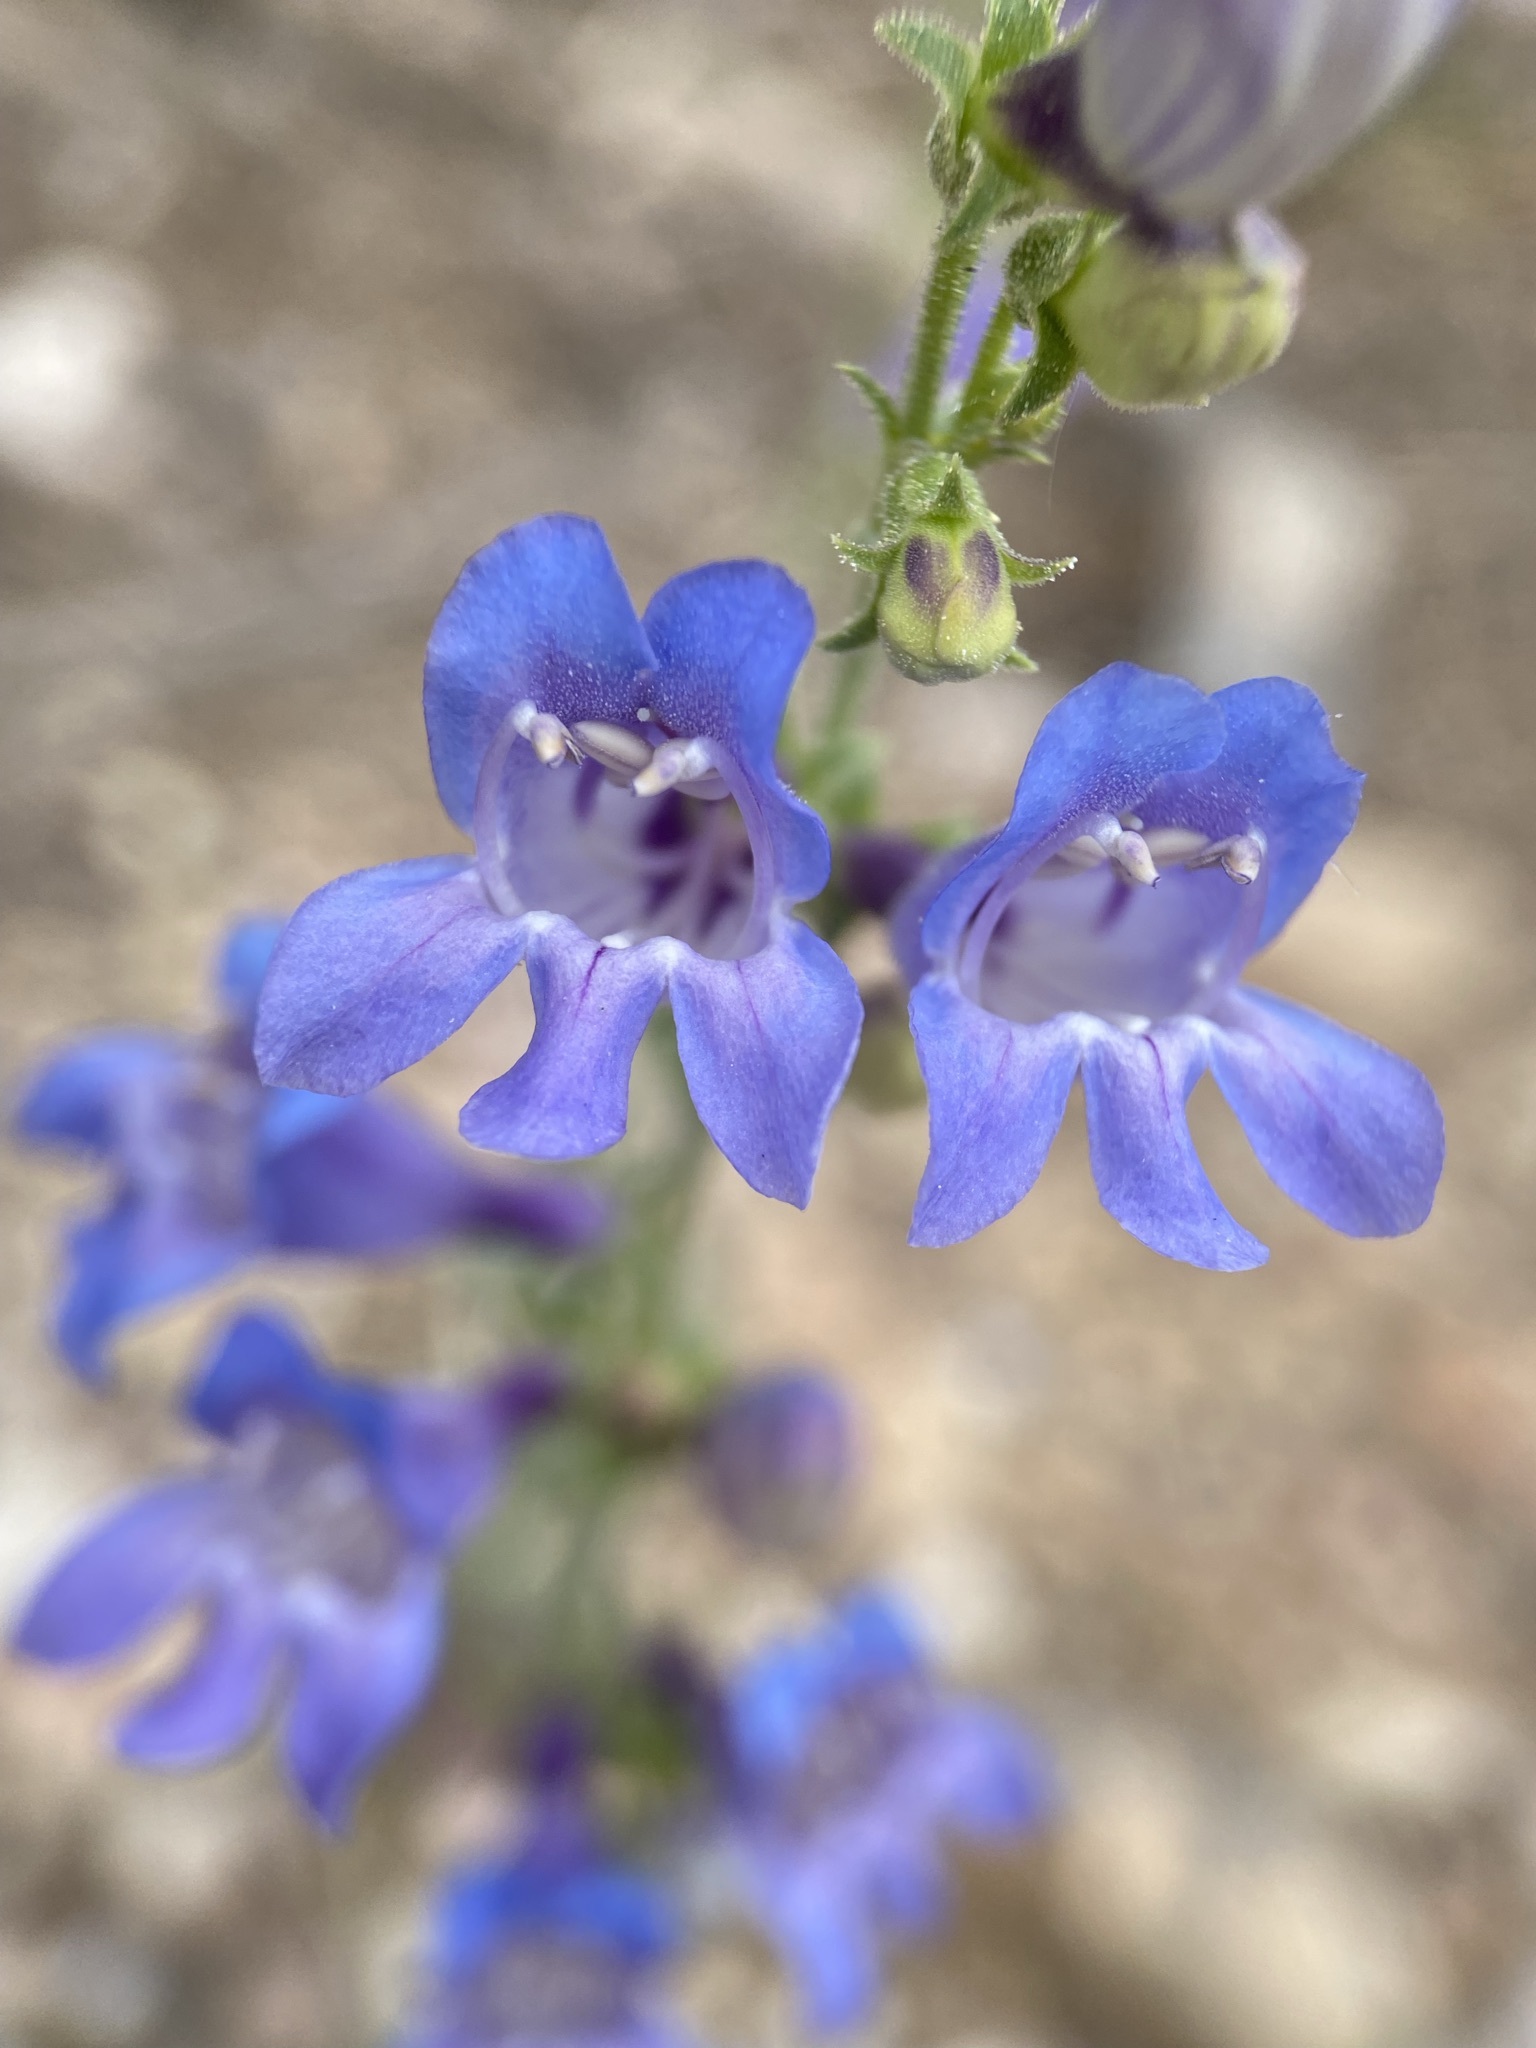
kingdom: Plantae
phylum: Tracheophyta
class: Magnoliopsida
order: Lamiales
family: Plantaginaceae
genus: Penstemon
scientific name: Penstemon leiophyllus
